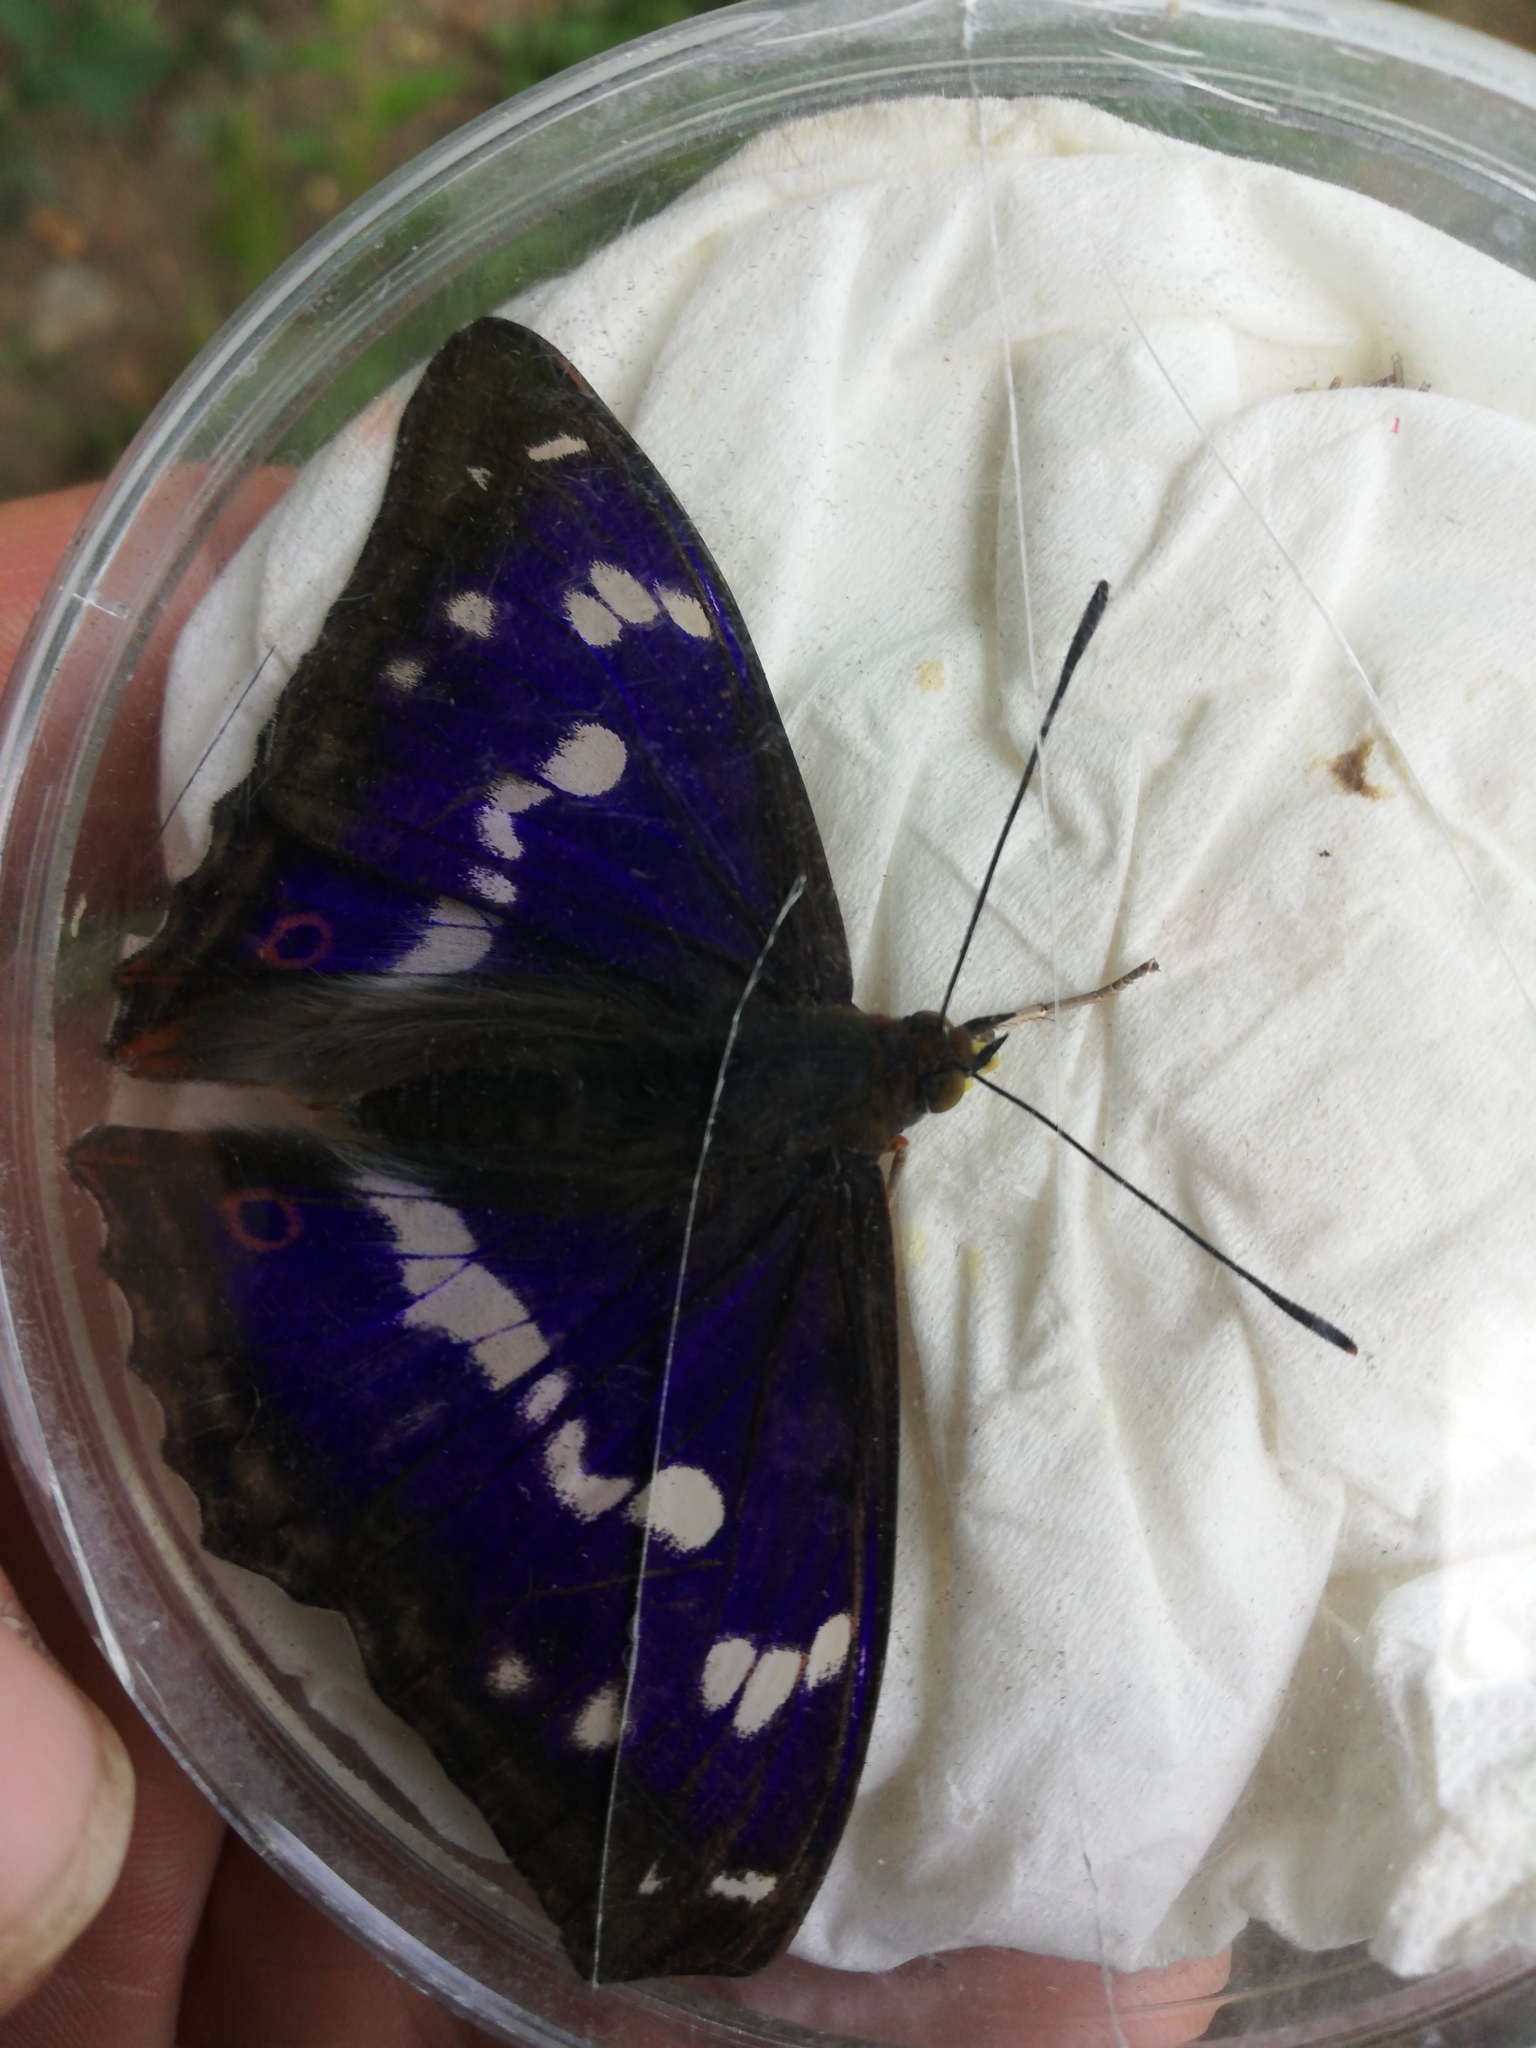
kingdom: Animalia
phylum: Arthropoda
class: Insecta
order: Lepidoptera
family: Nymphalidae
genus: Apatura
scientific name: Apatura iris
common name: Purple emperor
